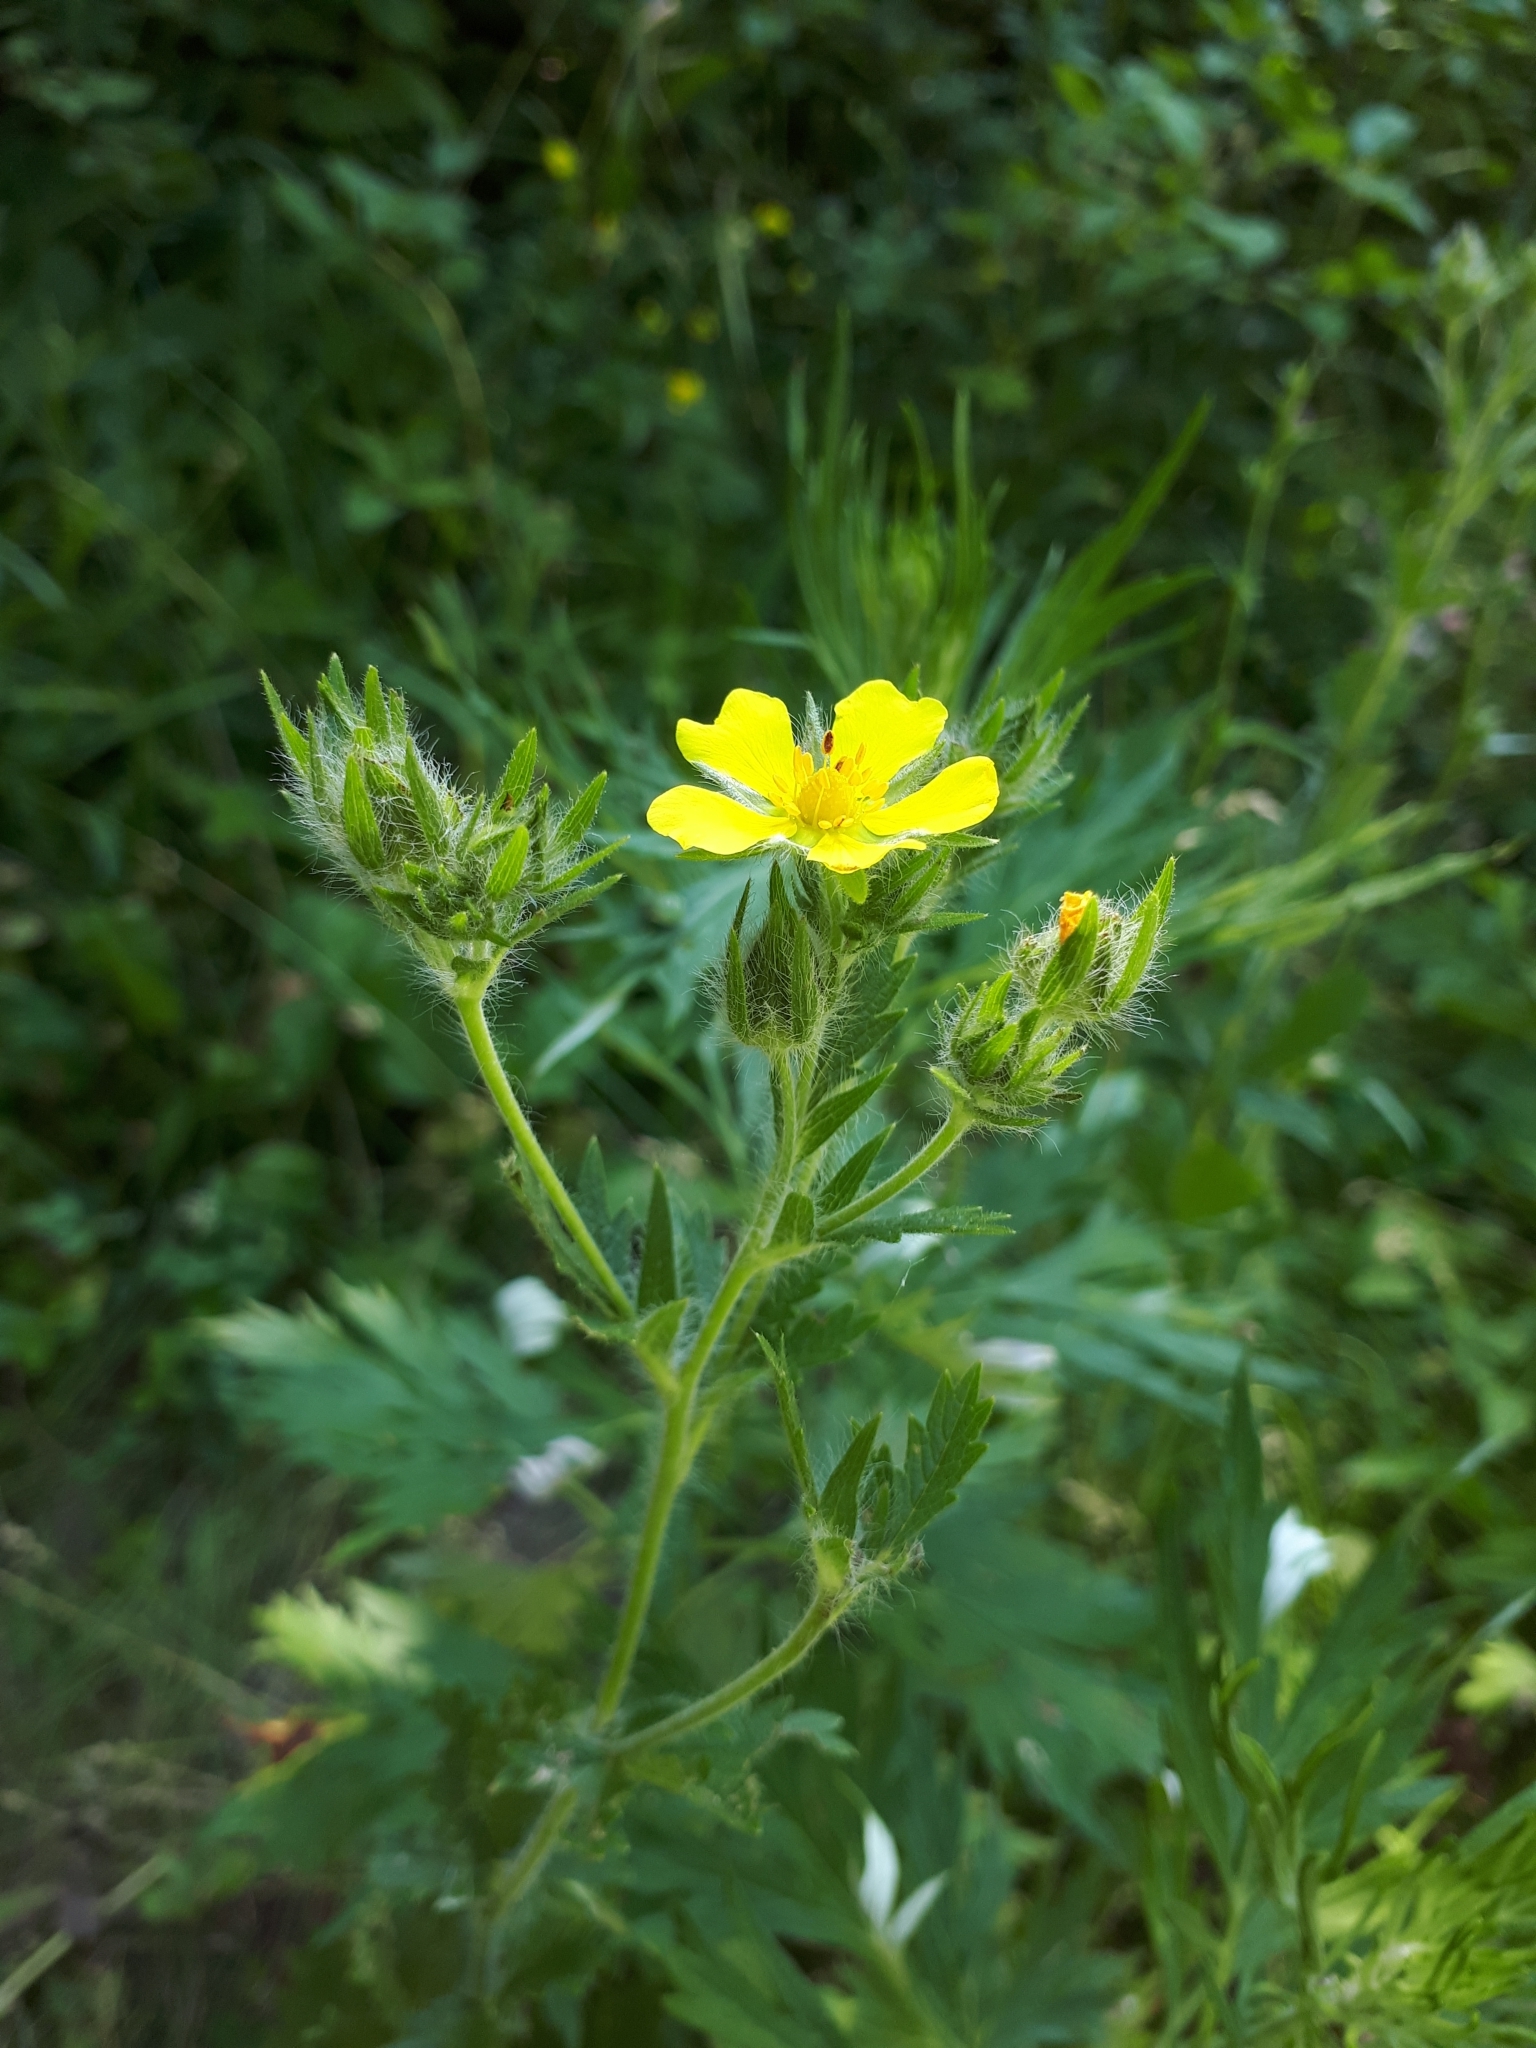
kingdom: Plantae
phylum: Tracheophyta
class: Magnoliopsida
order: Rosales
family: Rosaceae
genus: Potentilla
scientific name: Potentilla recta
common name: Sulphur cinquefoil
